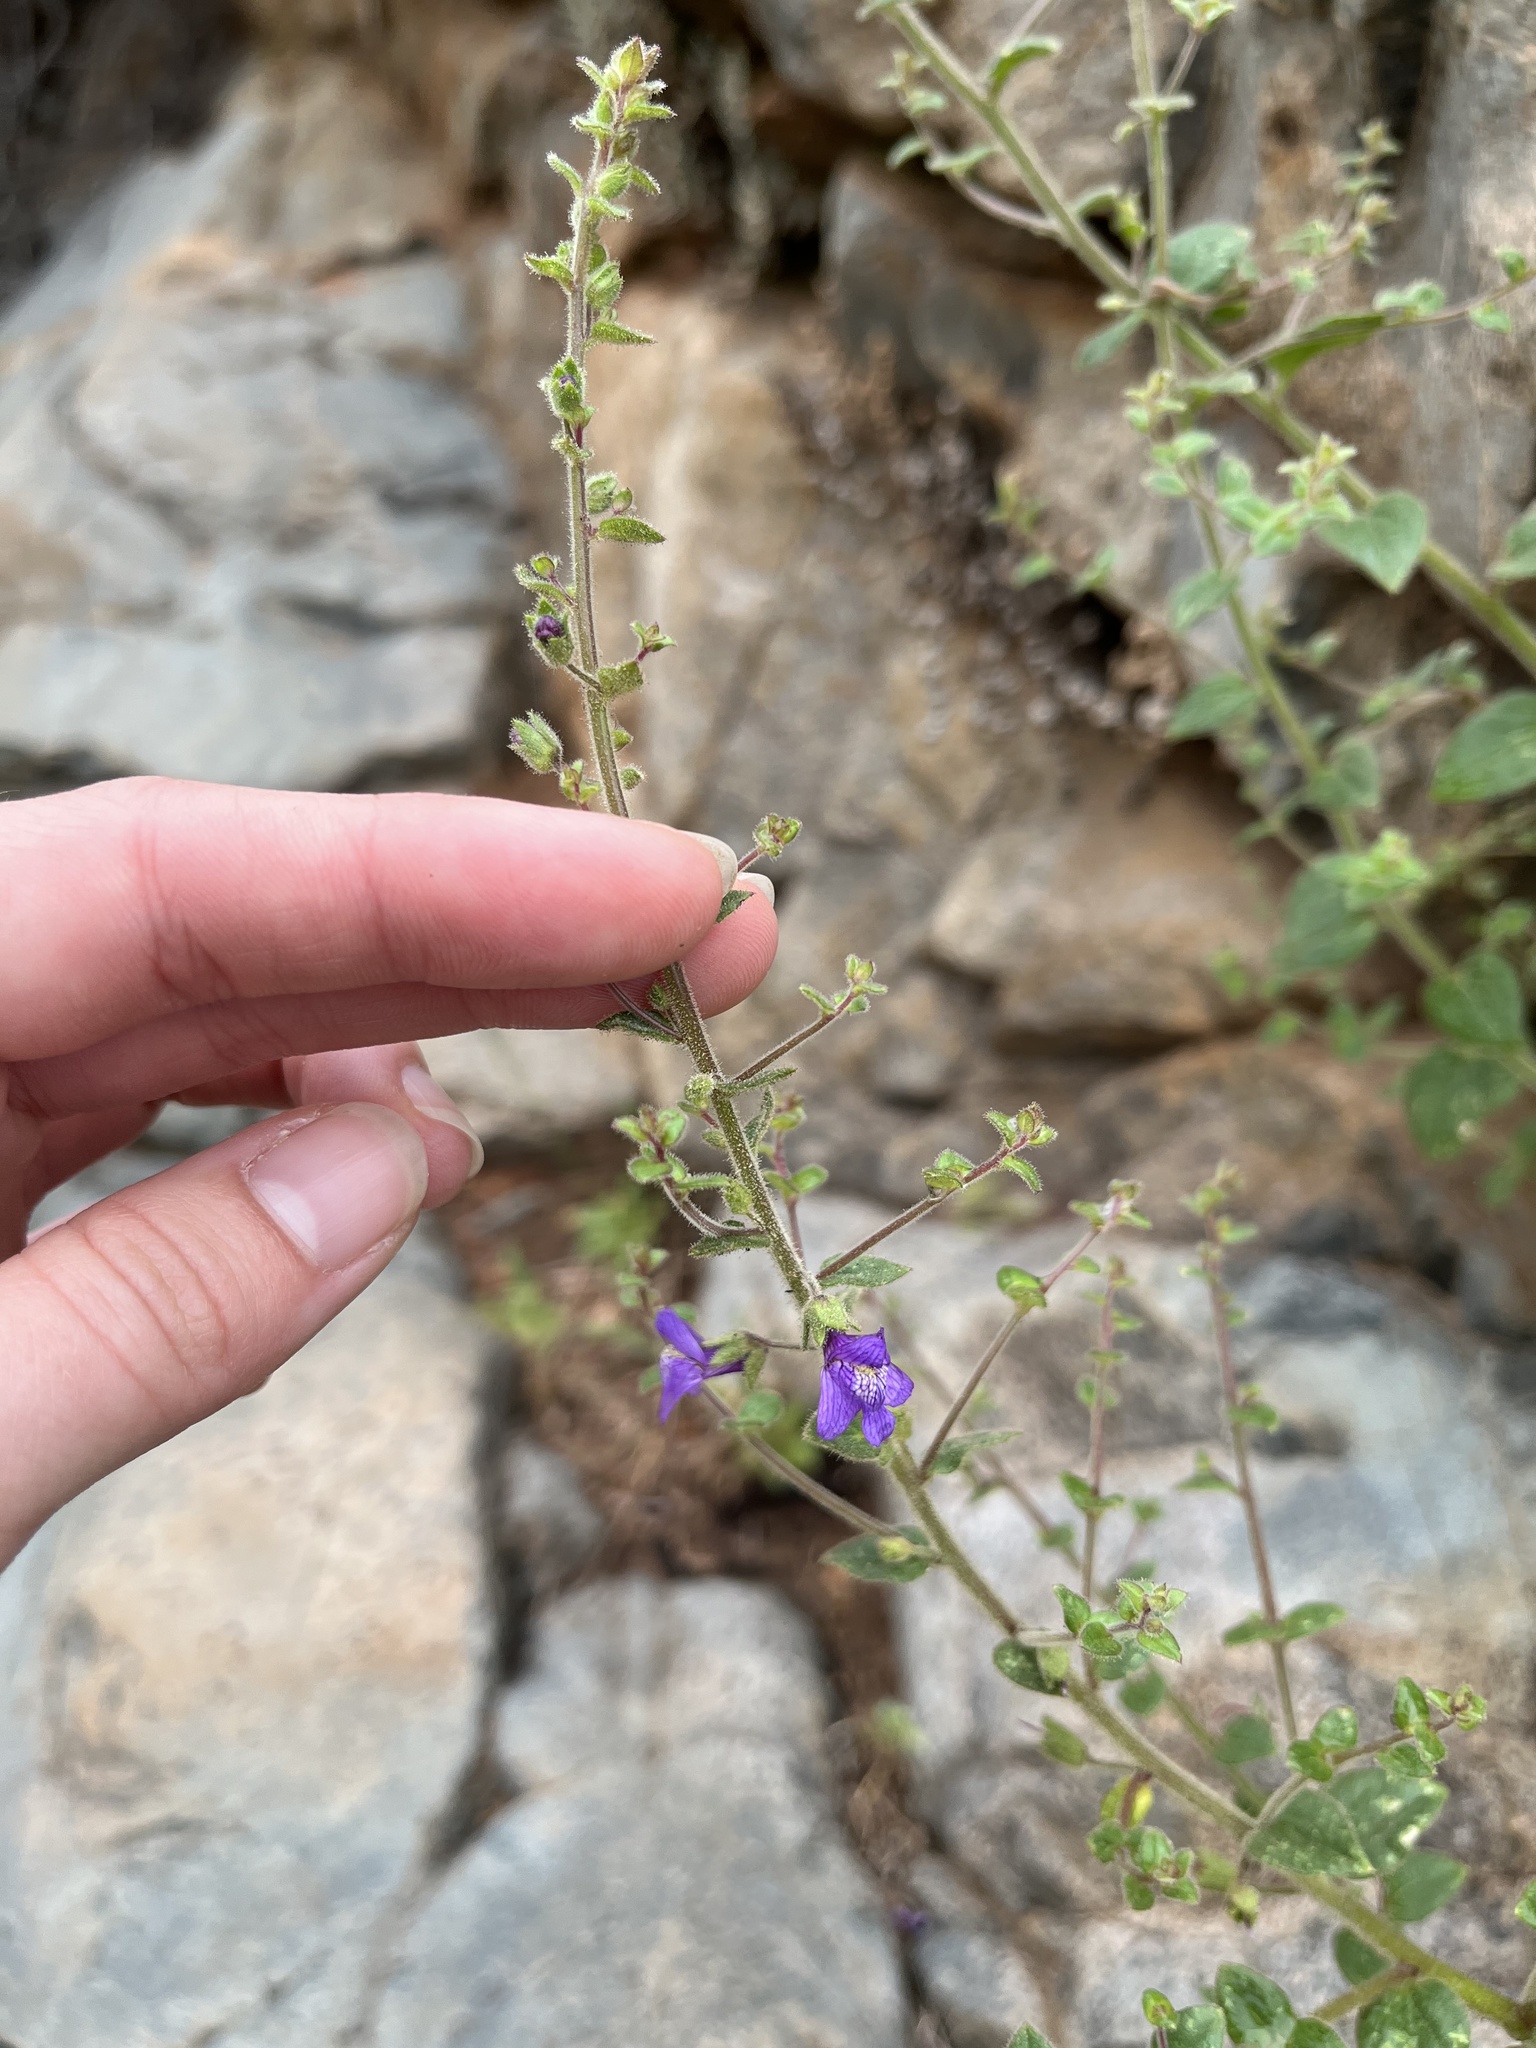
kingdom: Plantae
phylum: Tracheophyta
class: Magnoliopsida
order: Lamiales
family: Plantaginaceae
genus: Sairocarpus
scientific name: Sairocarpus nuttallianus
